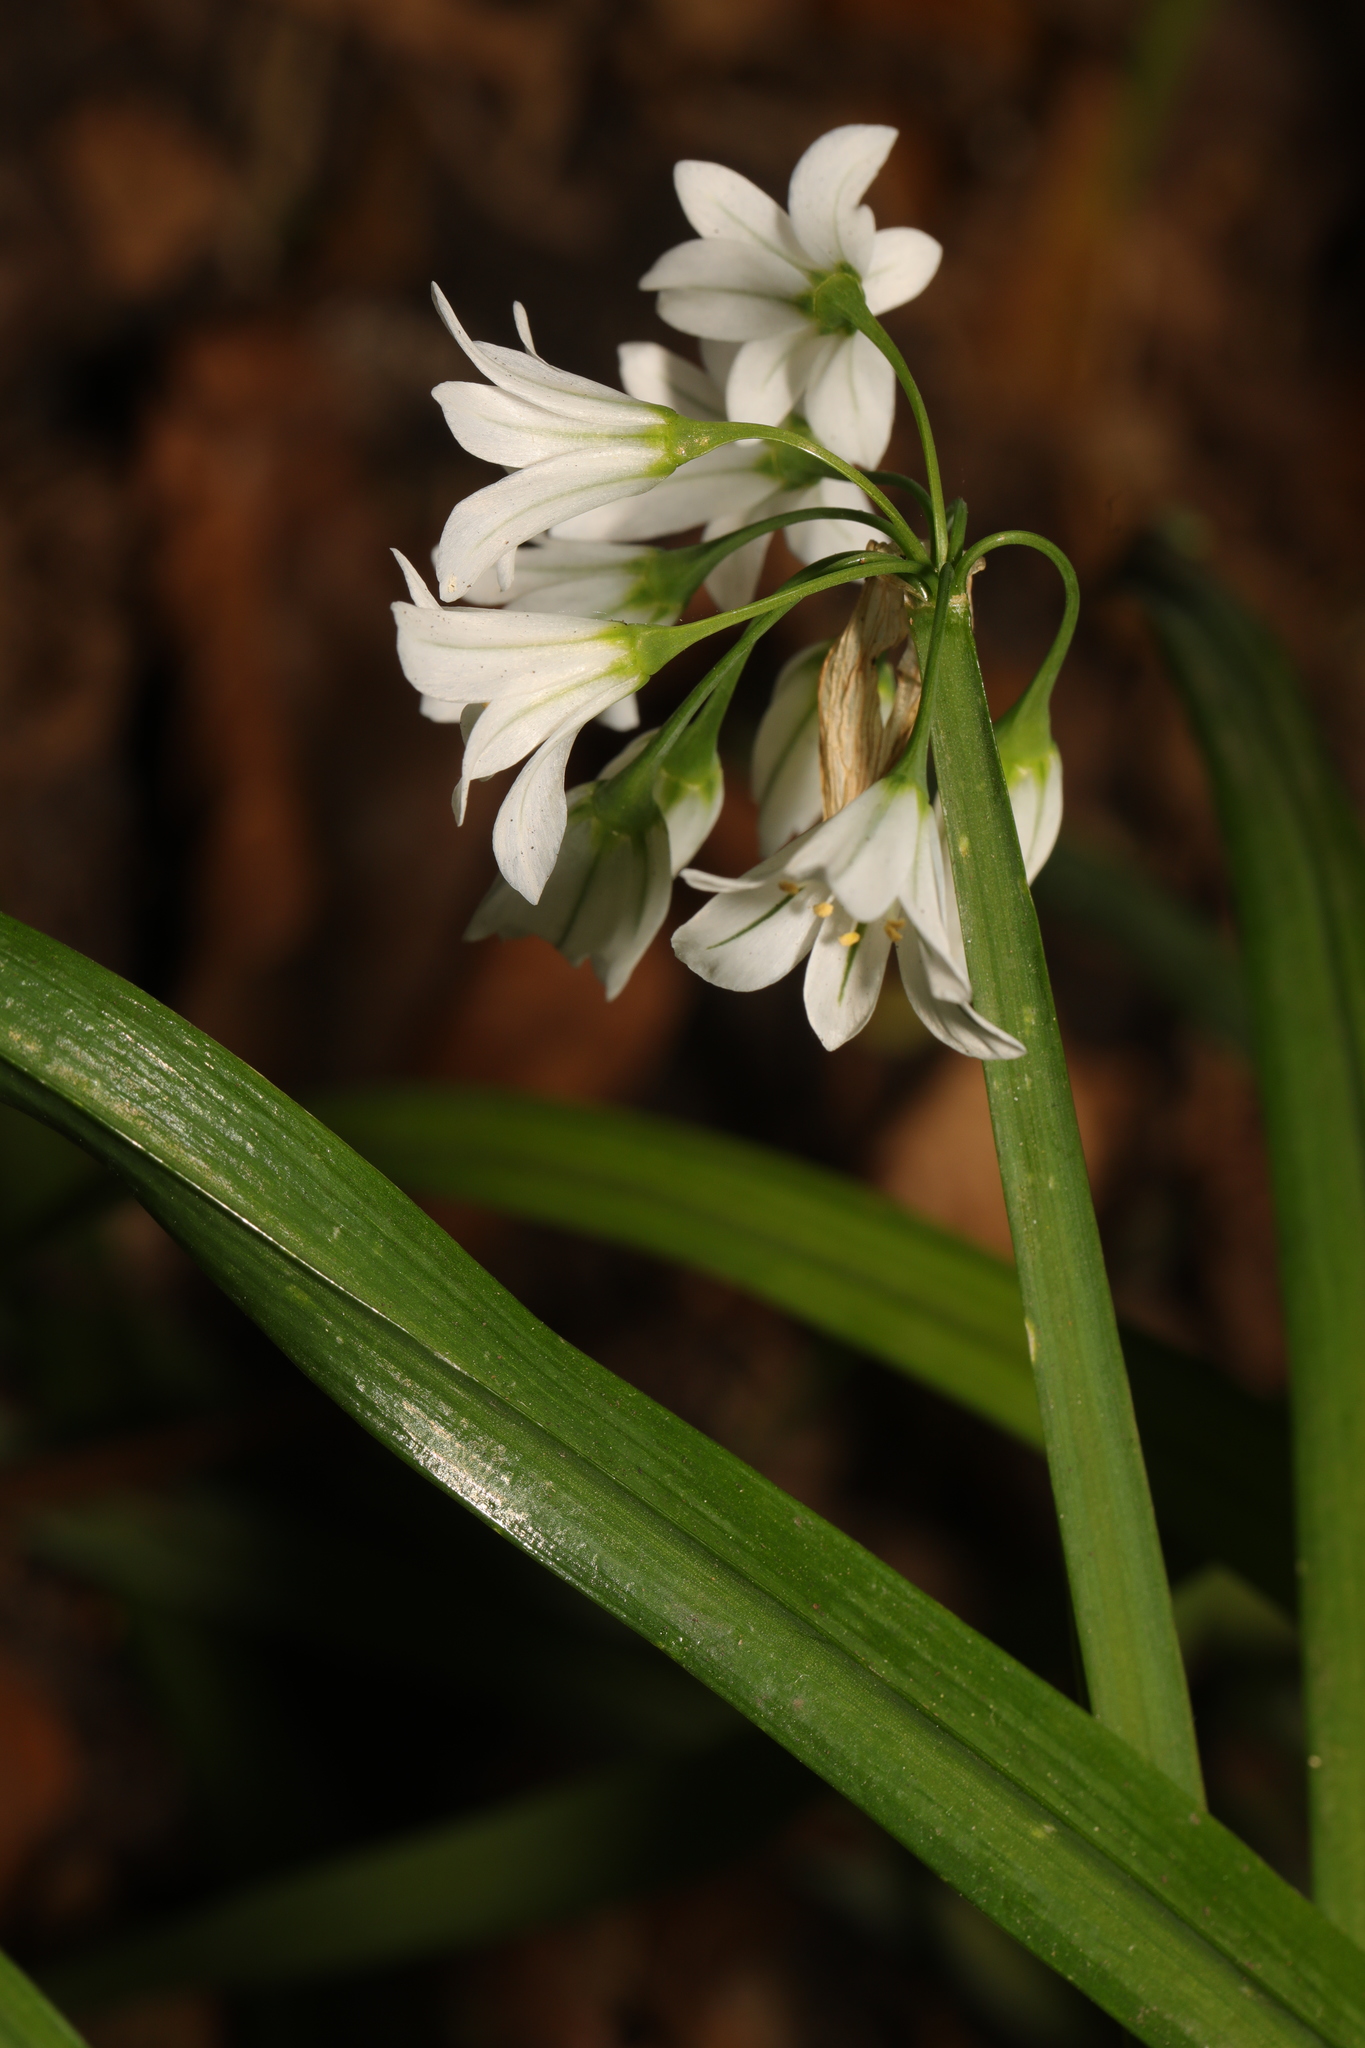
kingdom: Plantae
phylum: Tracheophyta
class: Liliopsida
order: Asparagales
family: Amaryllidaceae
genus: Allium
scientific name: Allium triquetrum
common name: Three-cornered garlic
